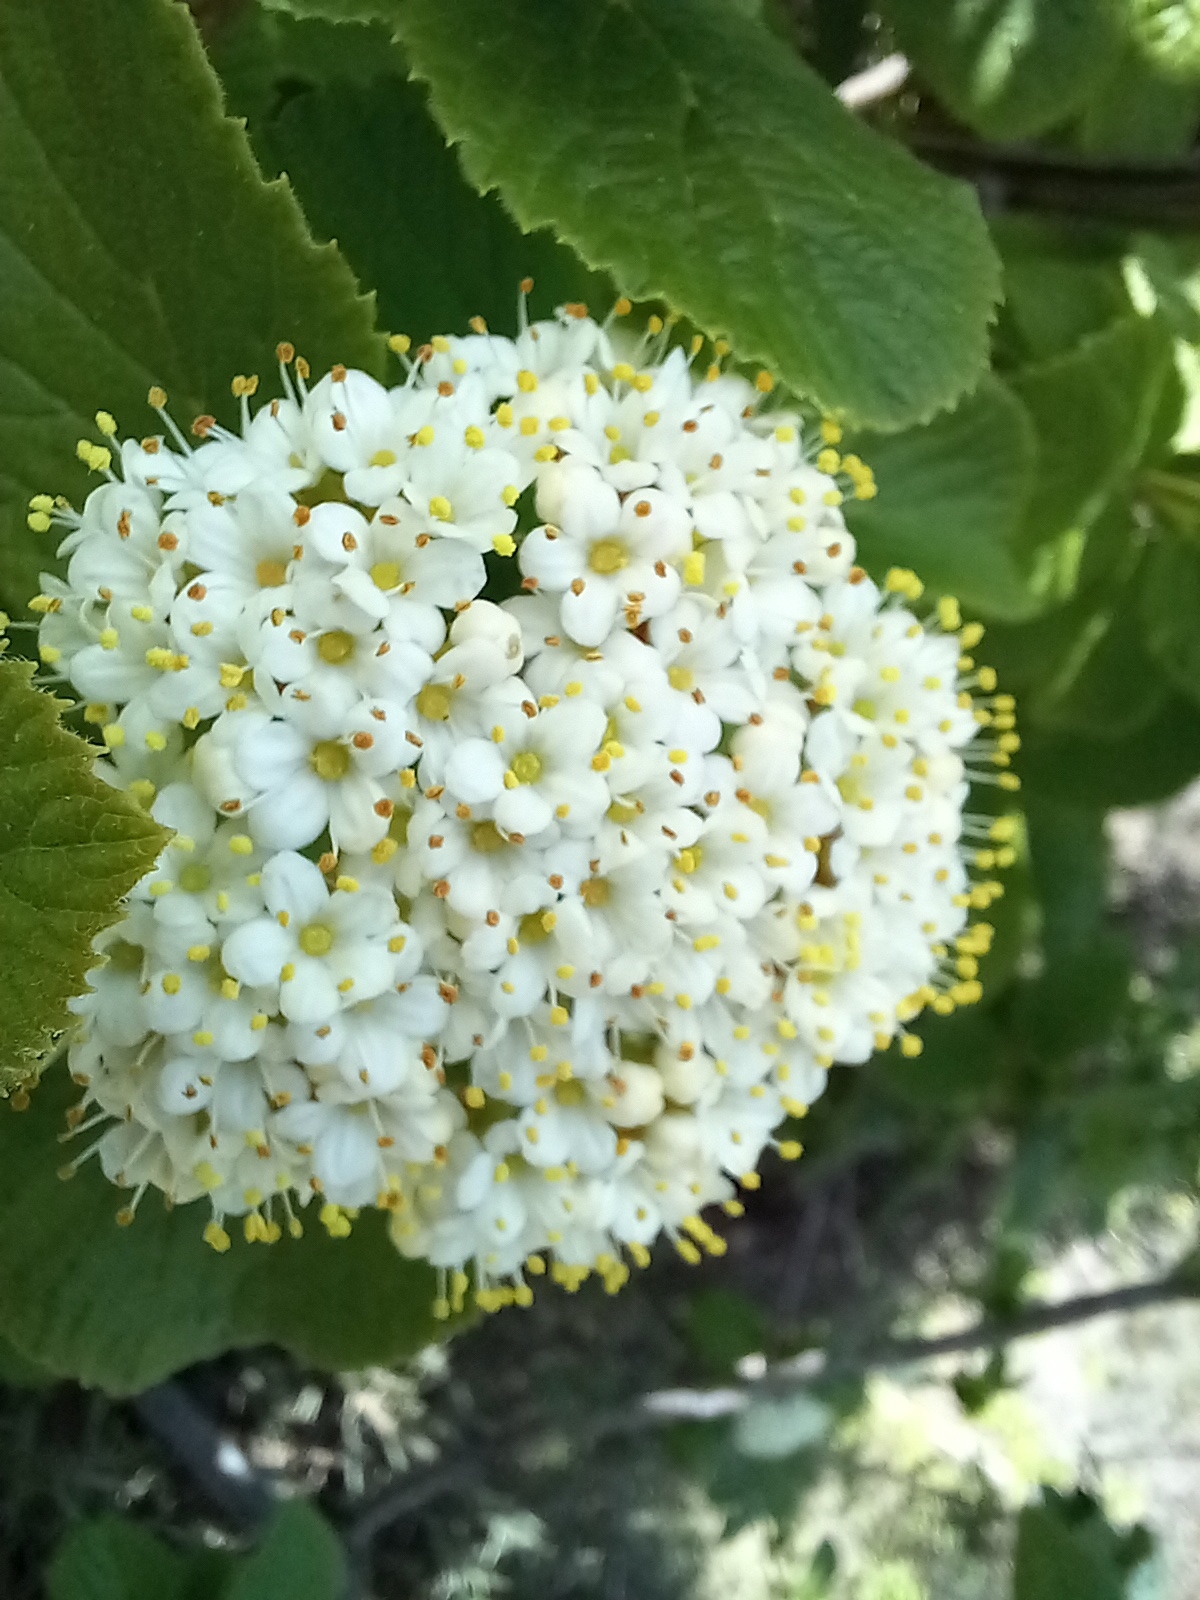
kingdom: Plantae
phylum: Tracheophyta
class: Magnoliopsida
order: Dipsacales
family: Viburnaceae
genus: Viburnum
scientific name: Viburnum lantana
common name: Wayfaring tree
